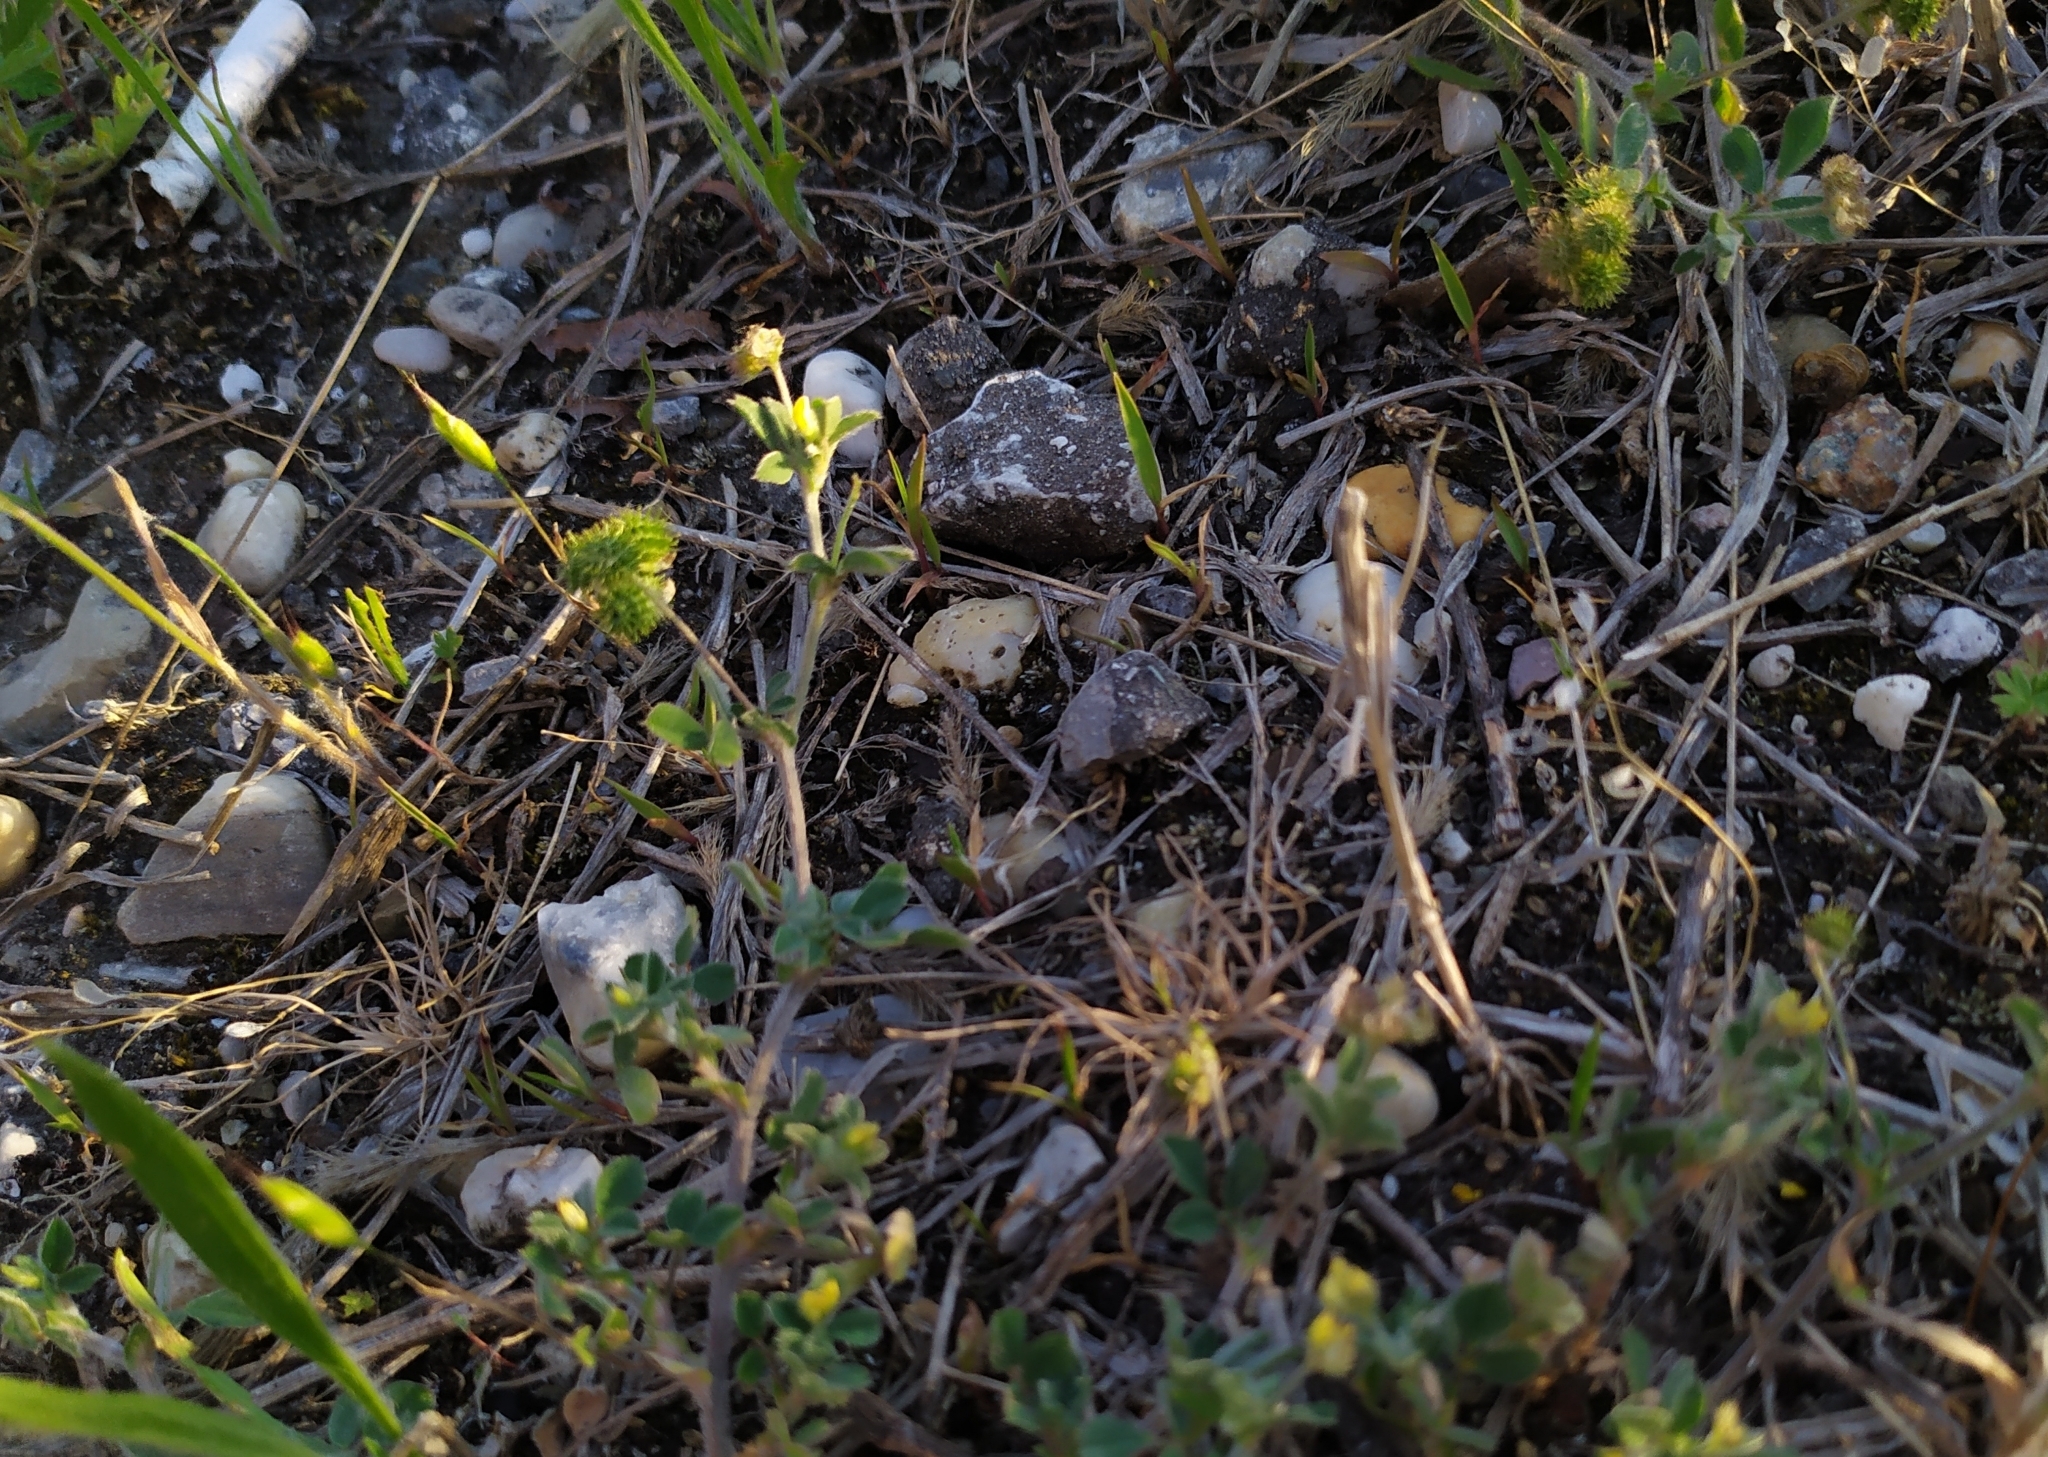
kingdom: Plantae
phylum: Tracheophyta
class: Magnoliopsida
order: Fabales
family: Fabaceae
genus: Medicago
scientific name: Medicago minima
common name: Little bur-clover
